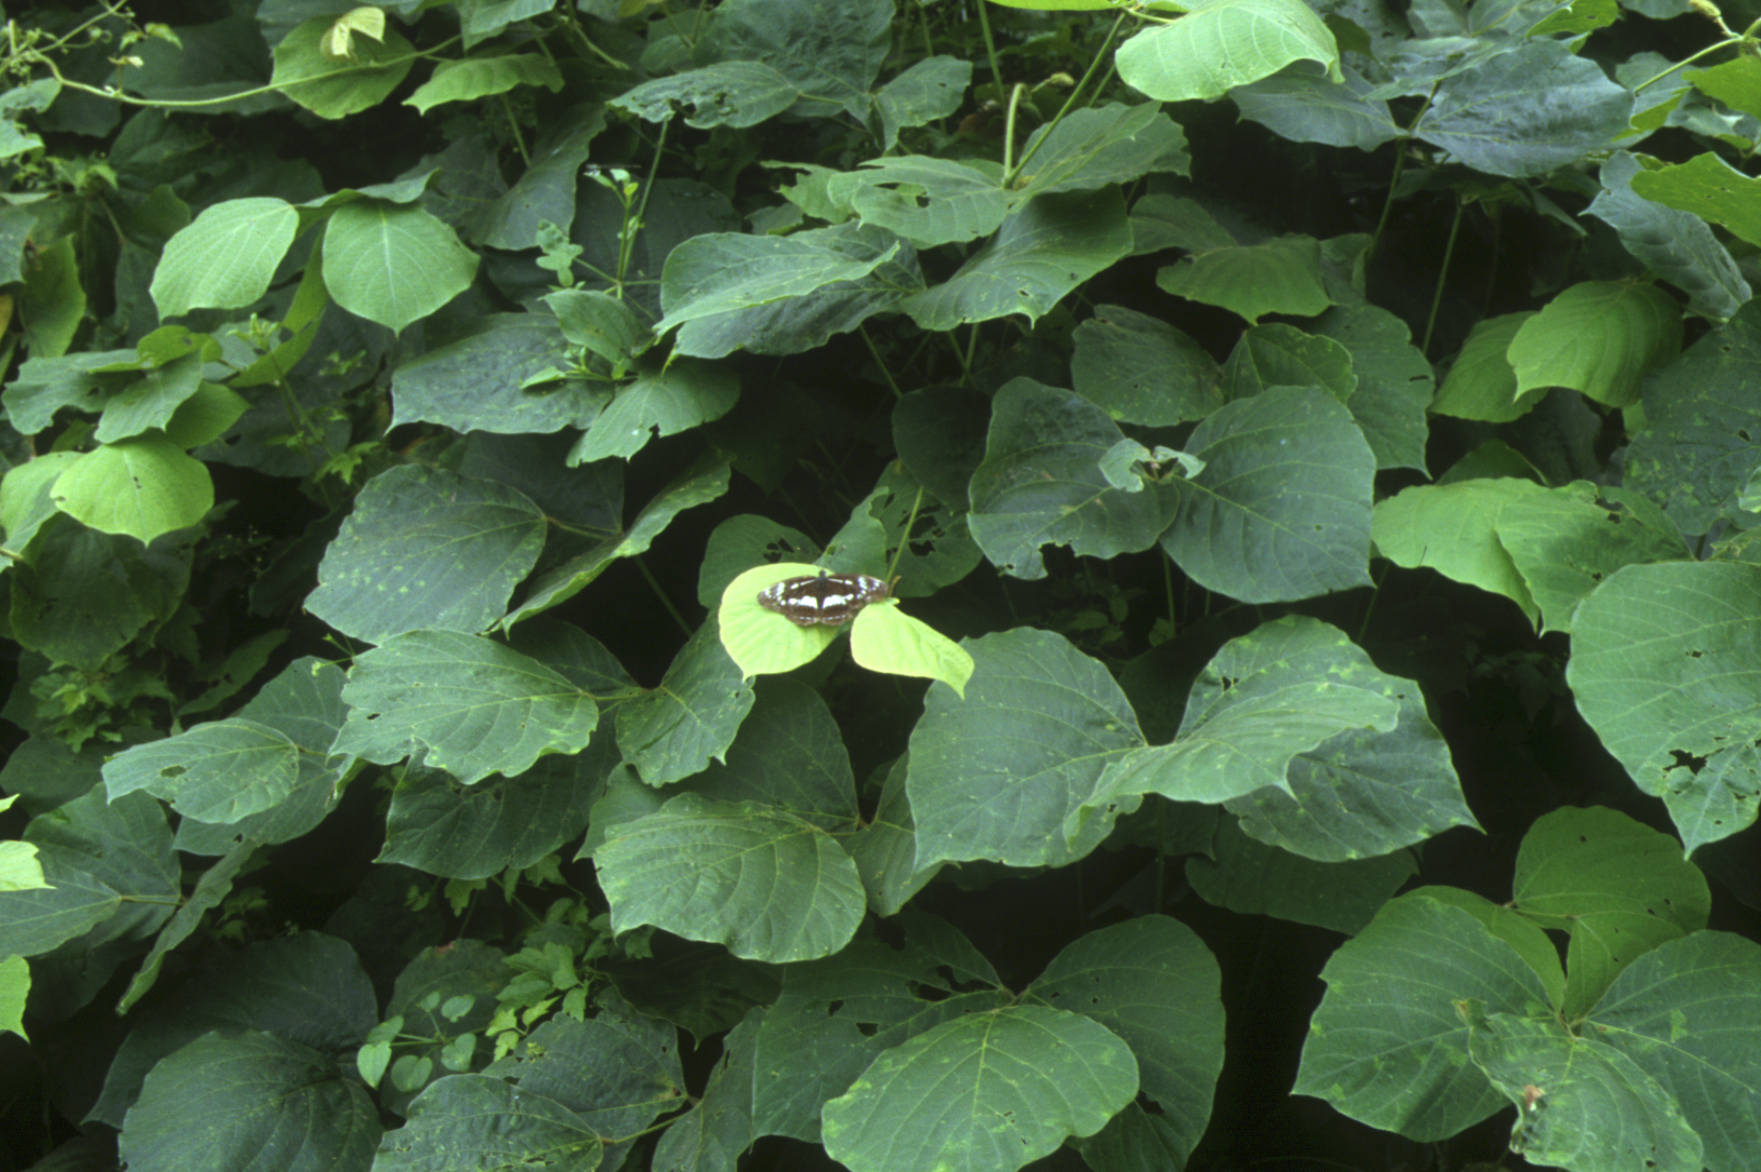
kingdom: Plantae
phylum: Tracheophyta
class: Magnoliopsida
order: Fabales
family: Fabaceae
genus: Pueraria
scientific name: Pueraria montana
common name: Kudzu
